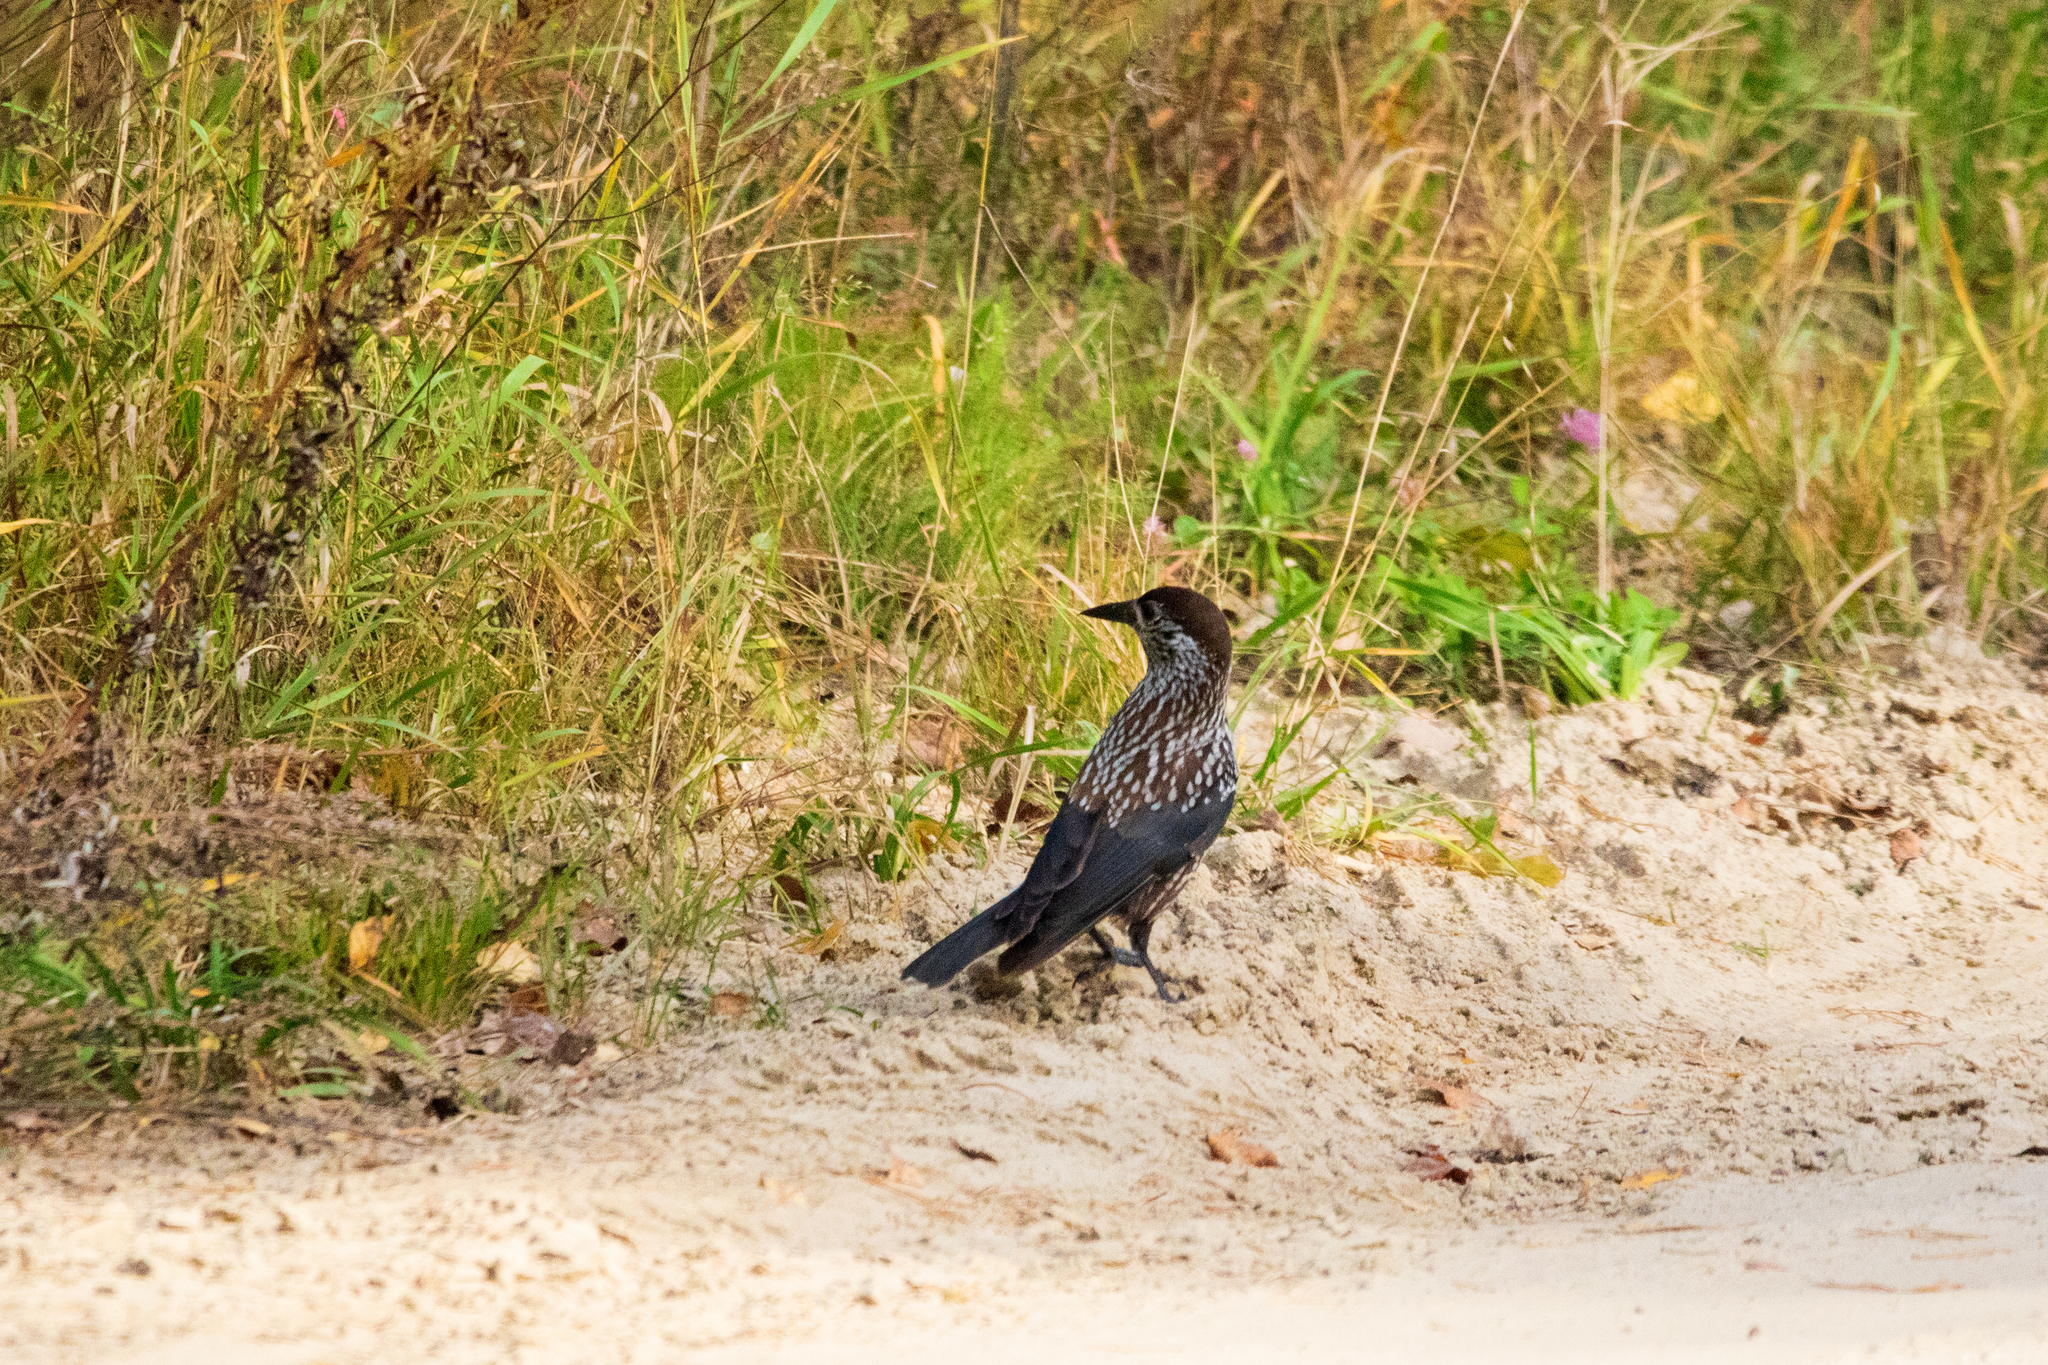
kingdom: Animalia
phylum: Chordata
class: Aves
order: Passeriformes
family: Corvidae
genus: Nucifraga
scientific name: Nucifraga caryocatactes
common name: Spotted nutcracker
